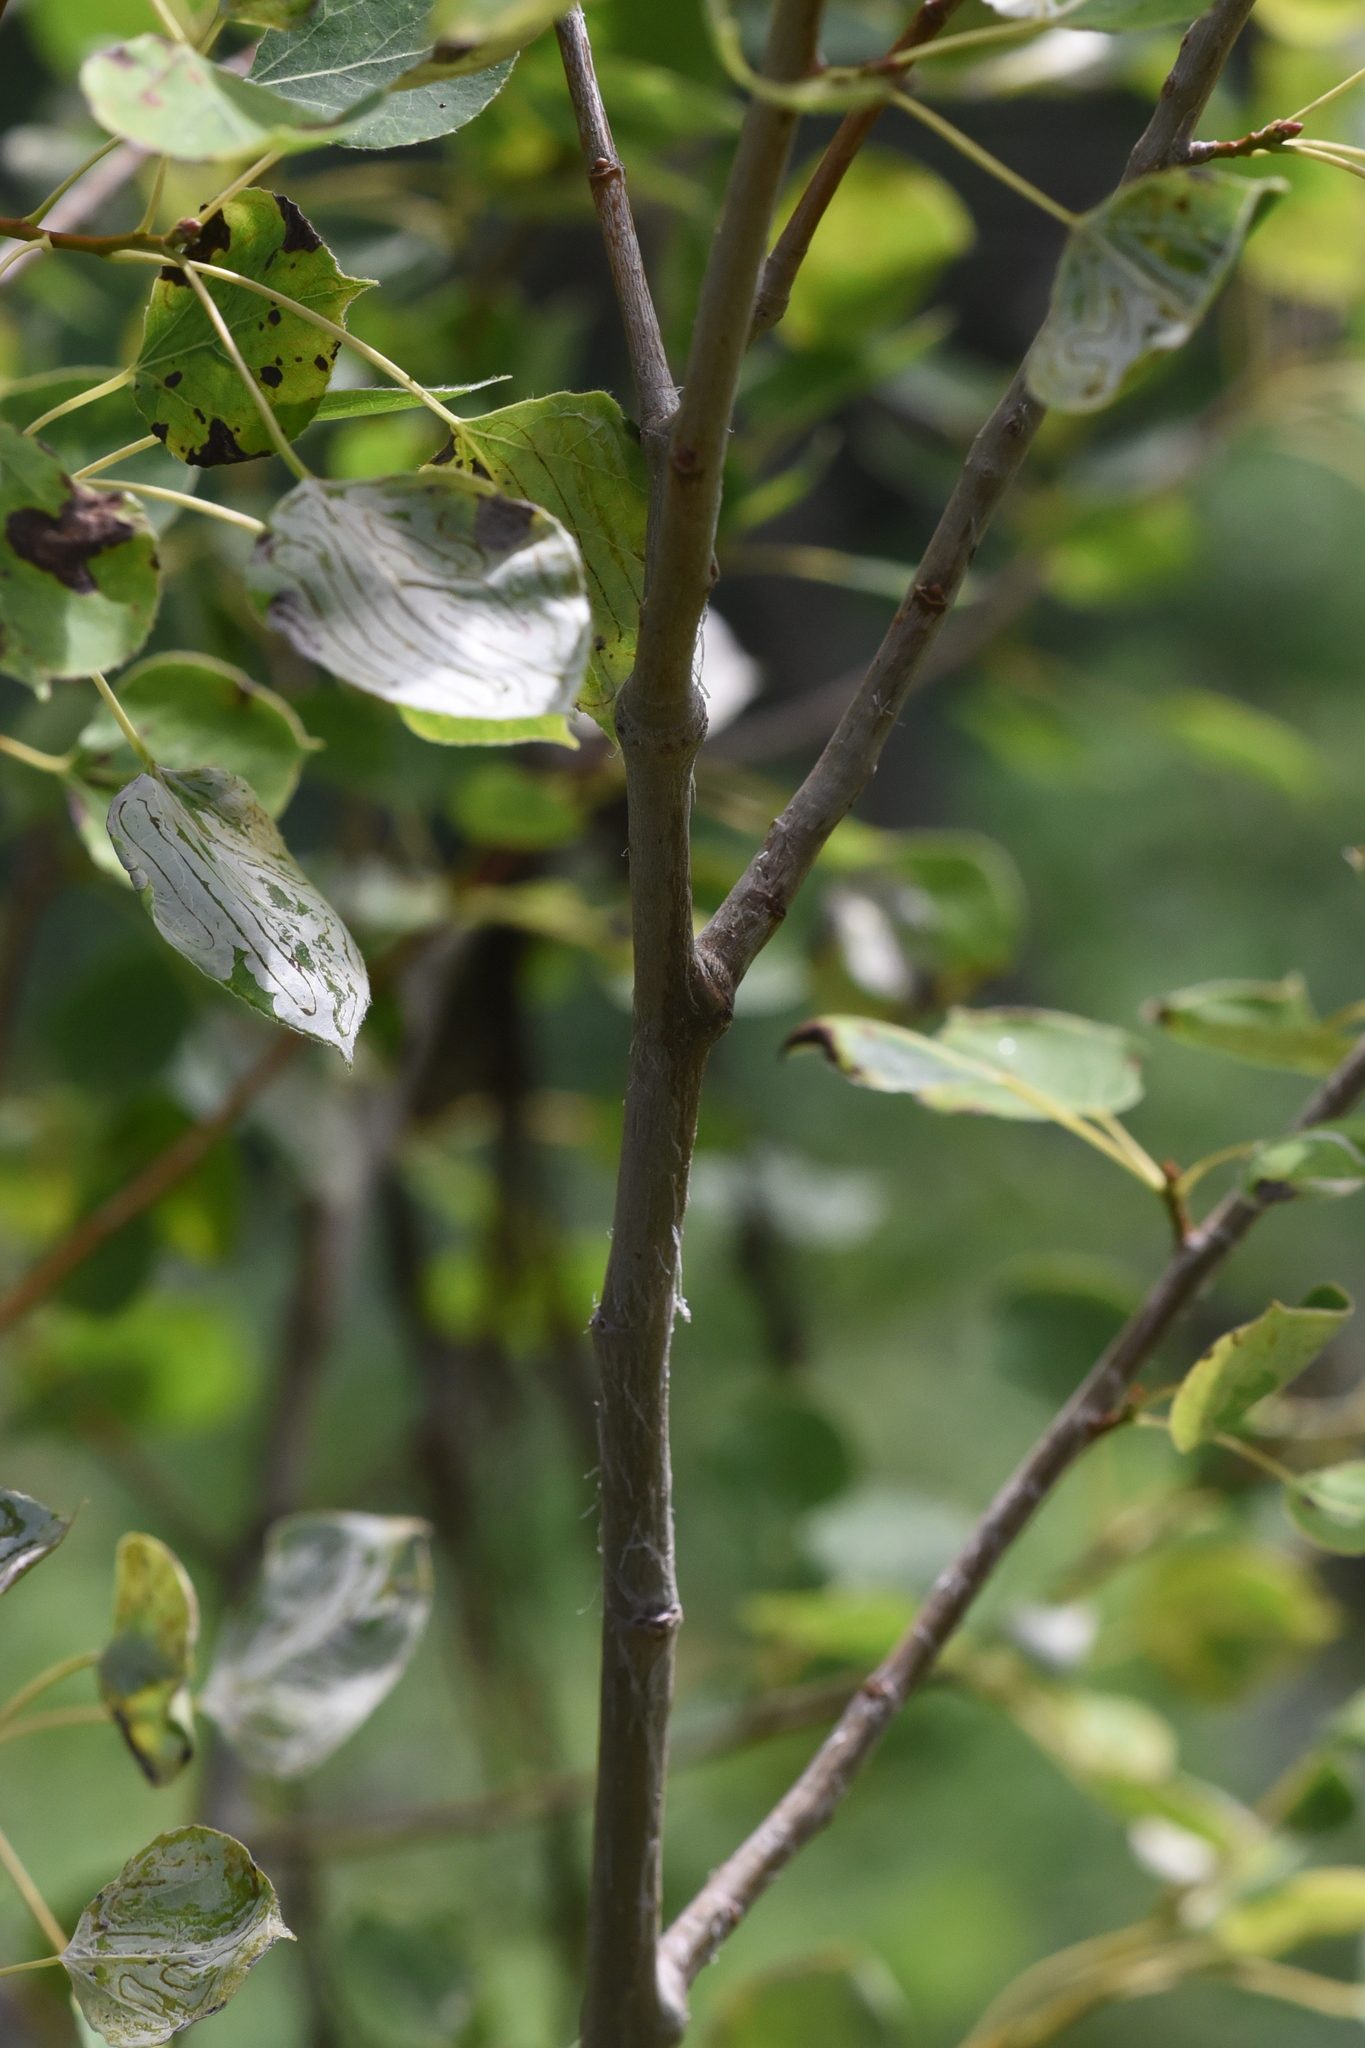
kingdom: Plantae
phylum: Tracheophyta
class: Magnoliopsida
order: Malpighiales
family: Salicaceae
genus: Populus
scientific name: Populus tremuloides
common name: Quaking aspen
